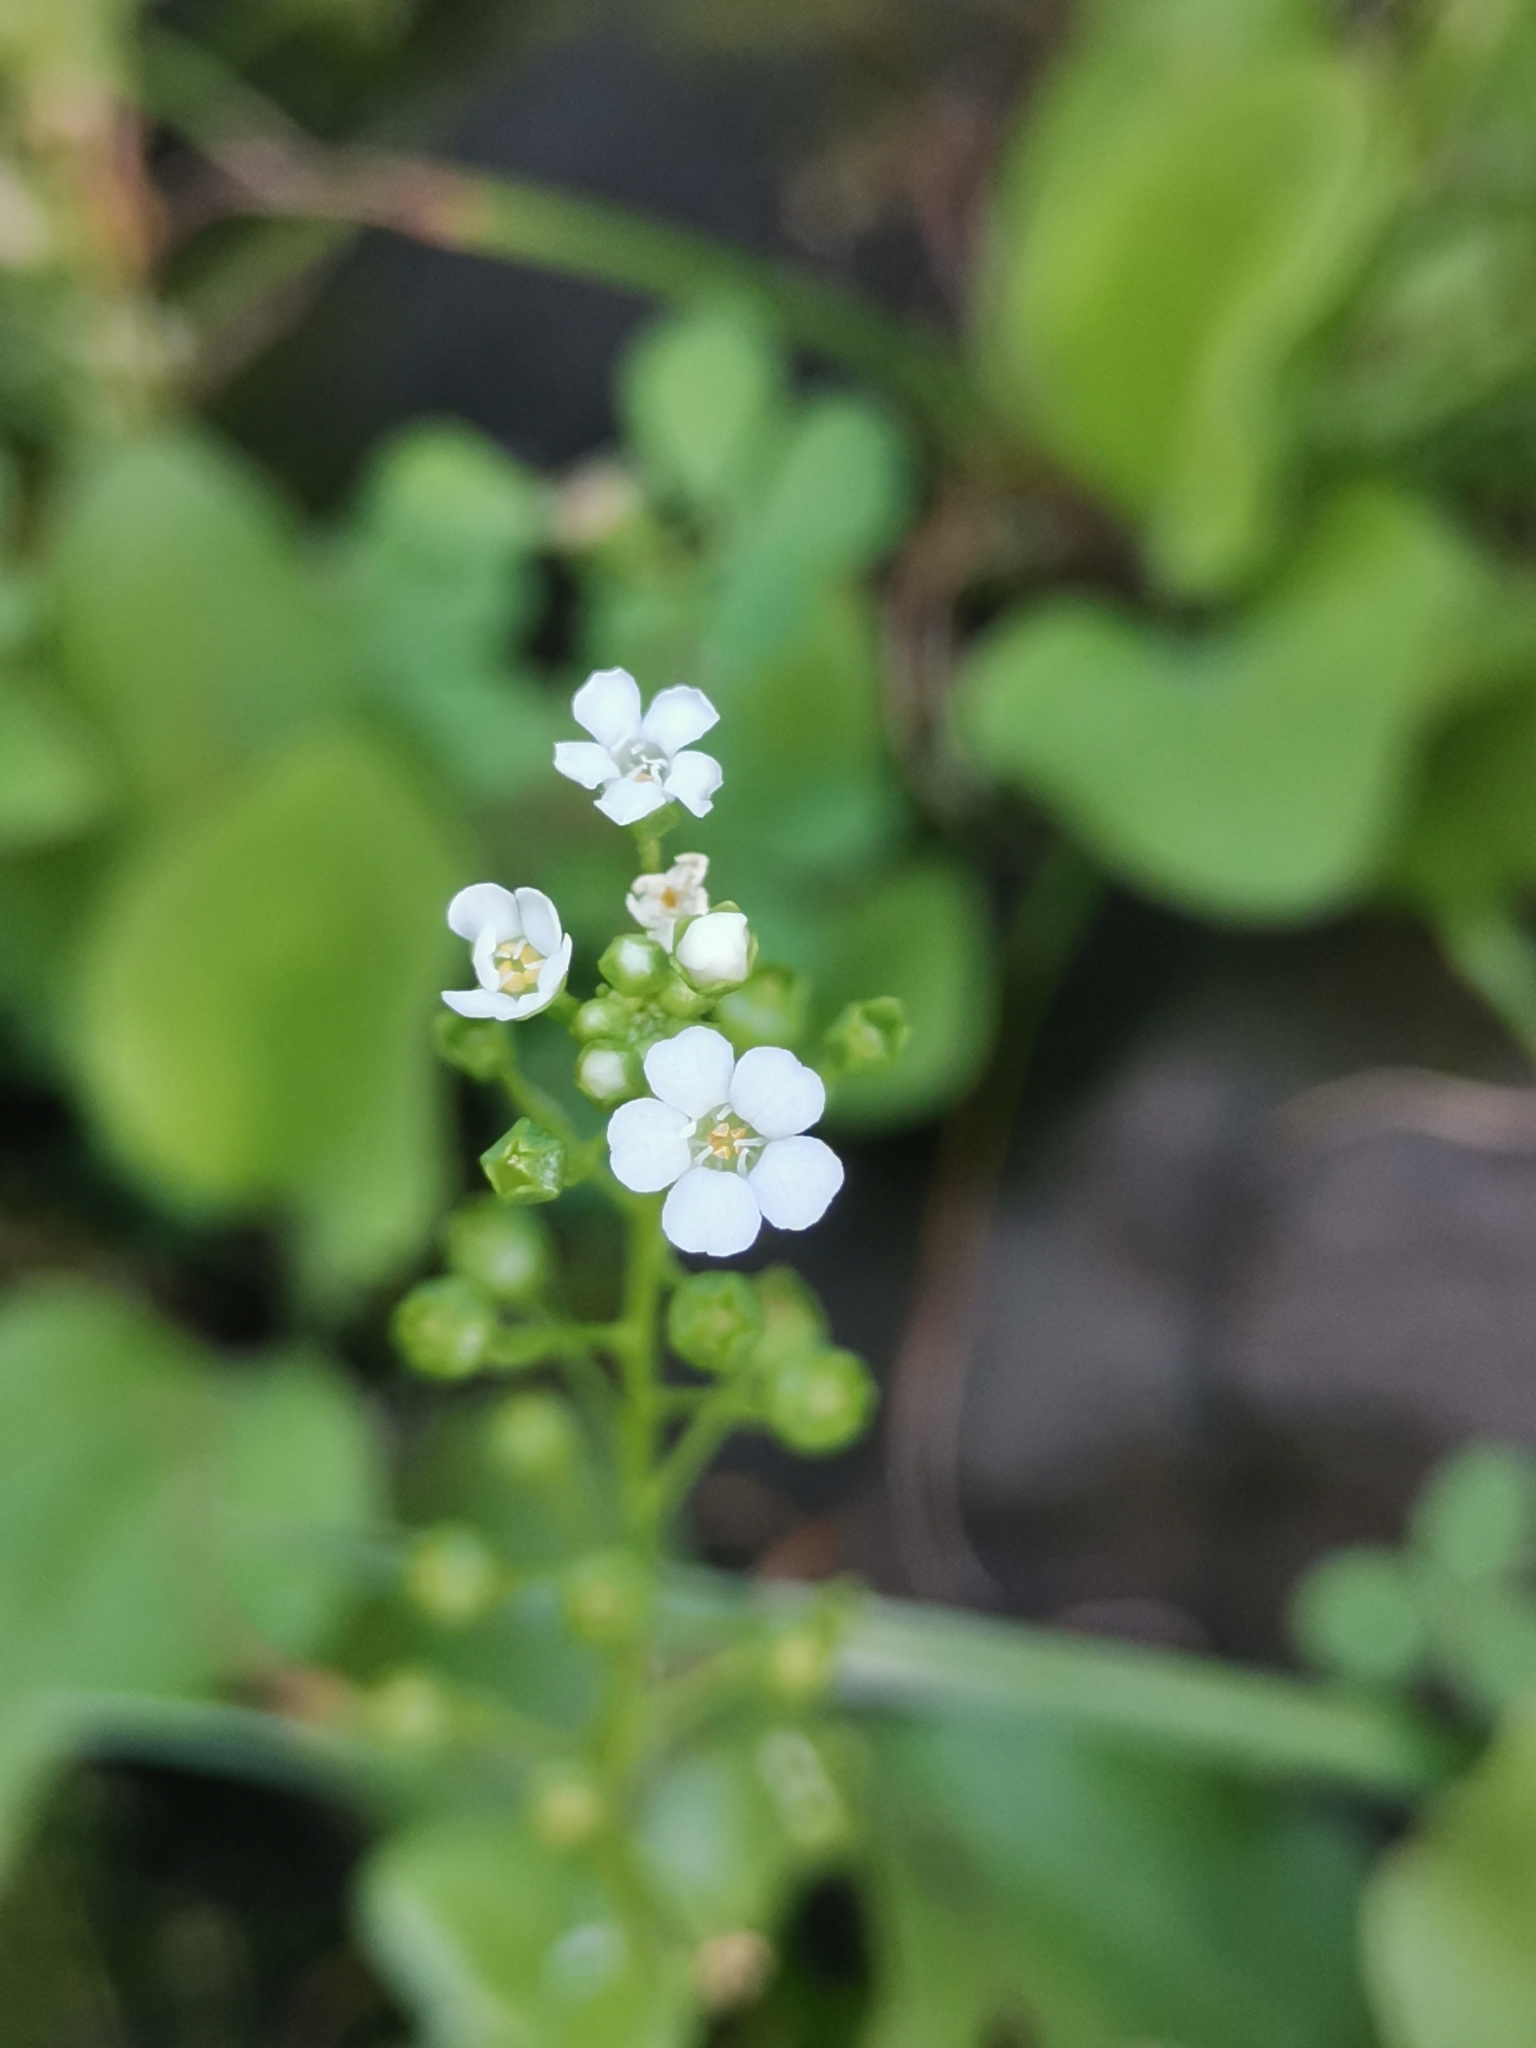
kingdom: Plantae
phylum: Tracheophyta
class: Magnoliopsida
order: Ericales
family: Primulaceae
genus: Samolus
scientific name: Samolus valerandi
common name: Brookweed
